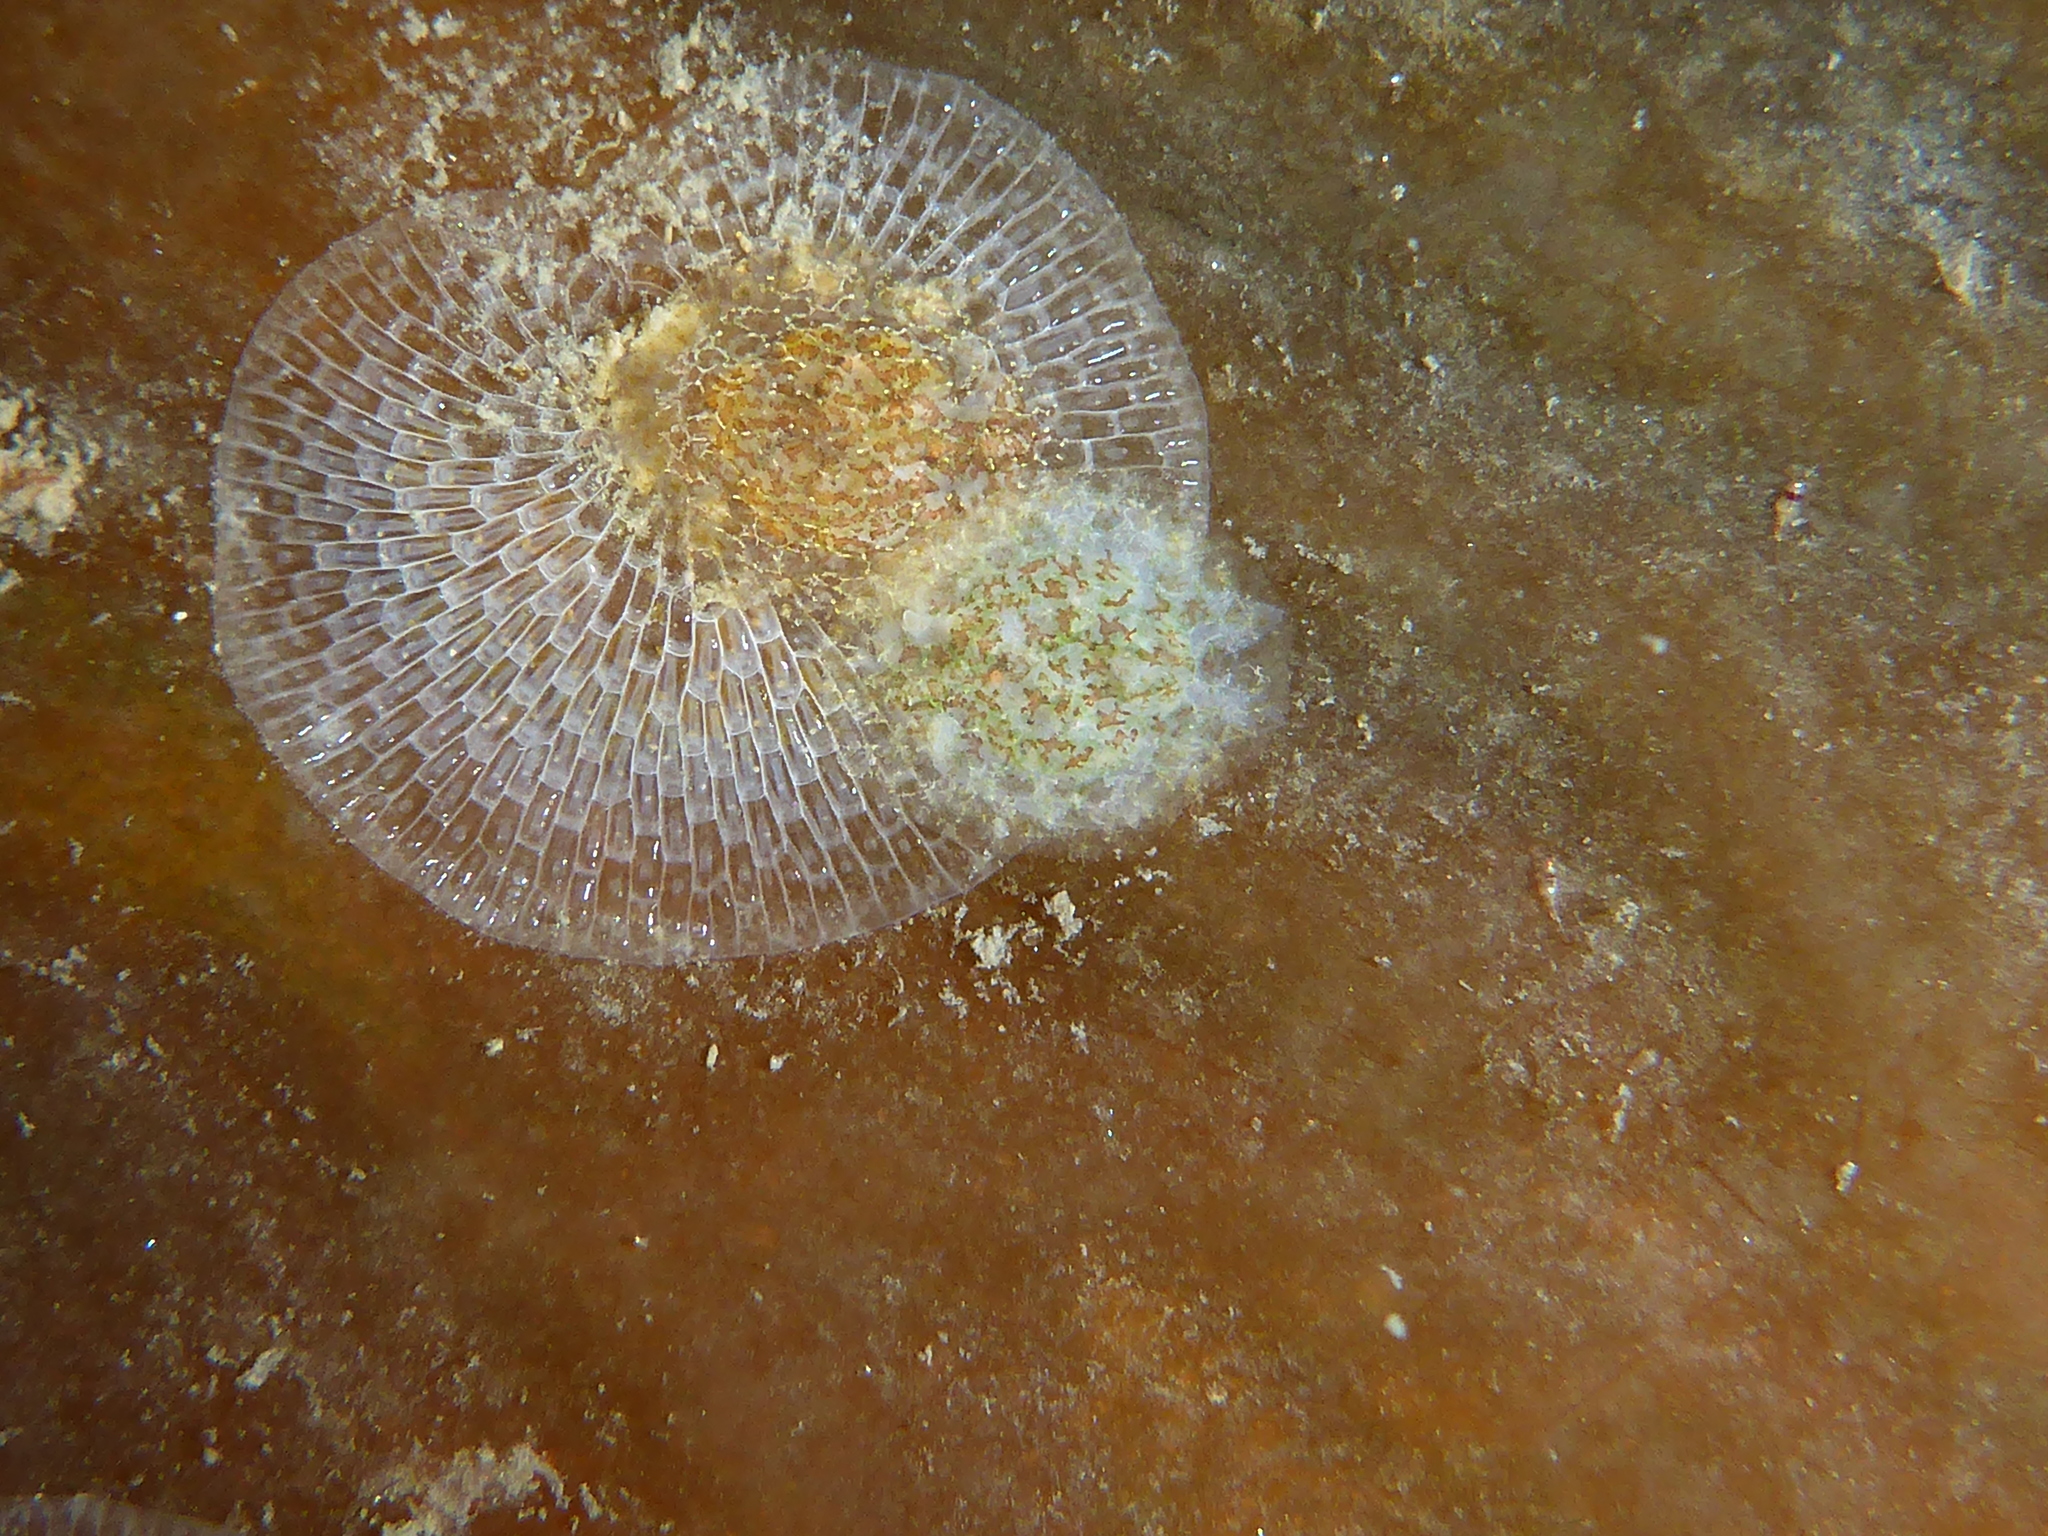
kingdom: Animalia
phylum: Mollusca
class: Gastropoda
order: Nudibranchia
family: Corambidae
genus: Corambe
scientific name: Corambe pacifica
